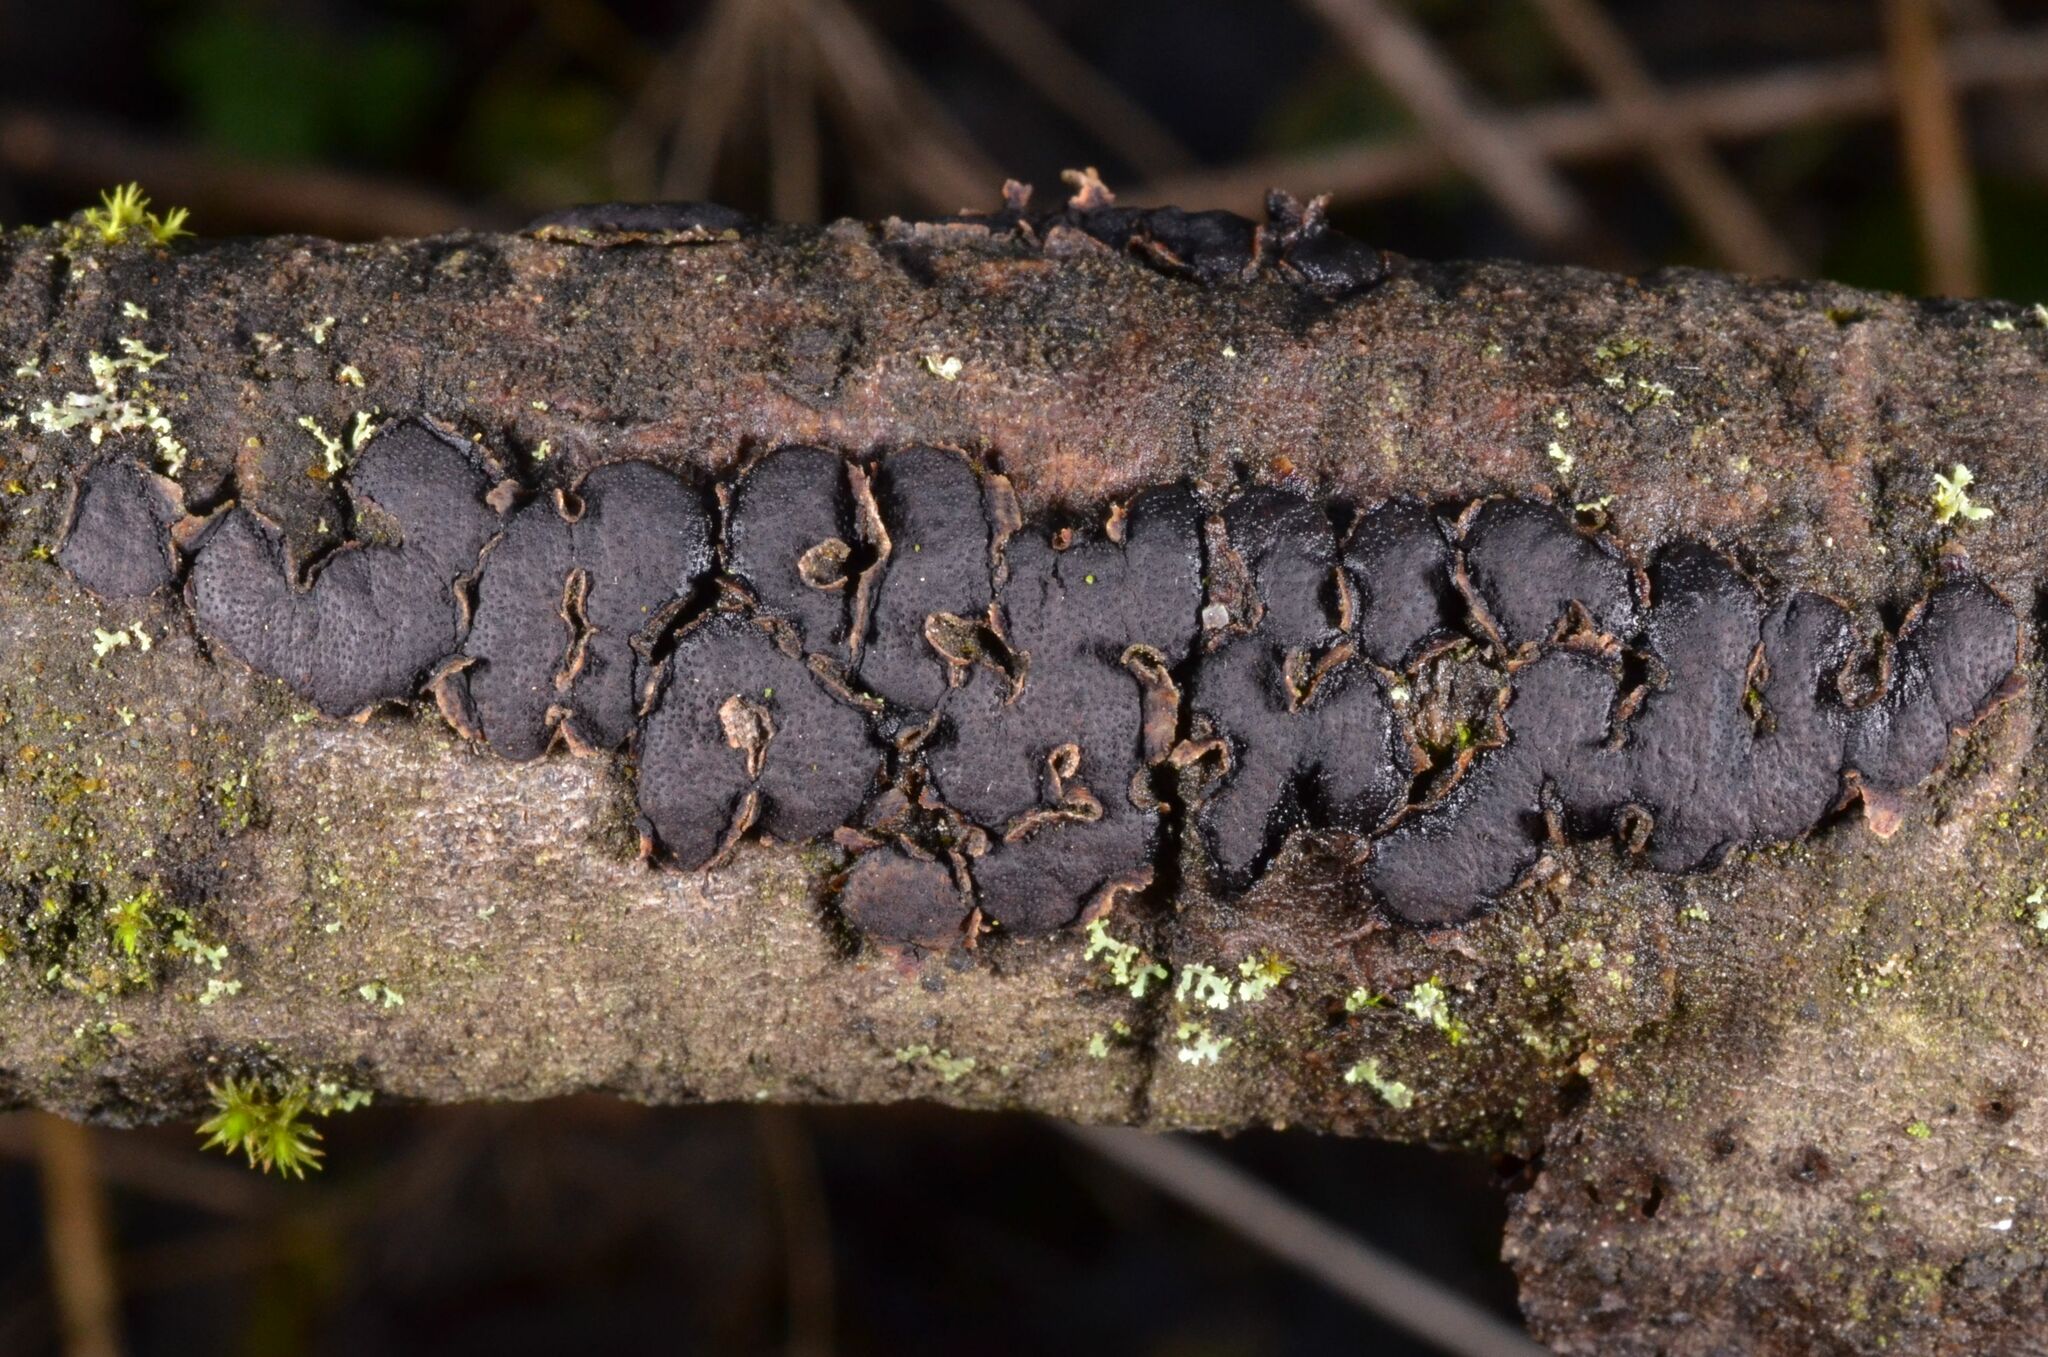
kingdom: Fungi
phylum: Ascomycota
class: Sordariomycetes
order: Xylariales
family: Diatrypaceae
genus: Diatrype
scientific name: Diatrype bullata
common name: Willow barkspot
